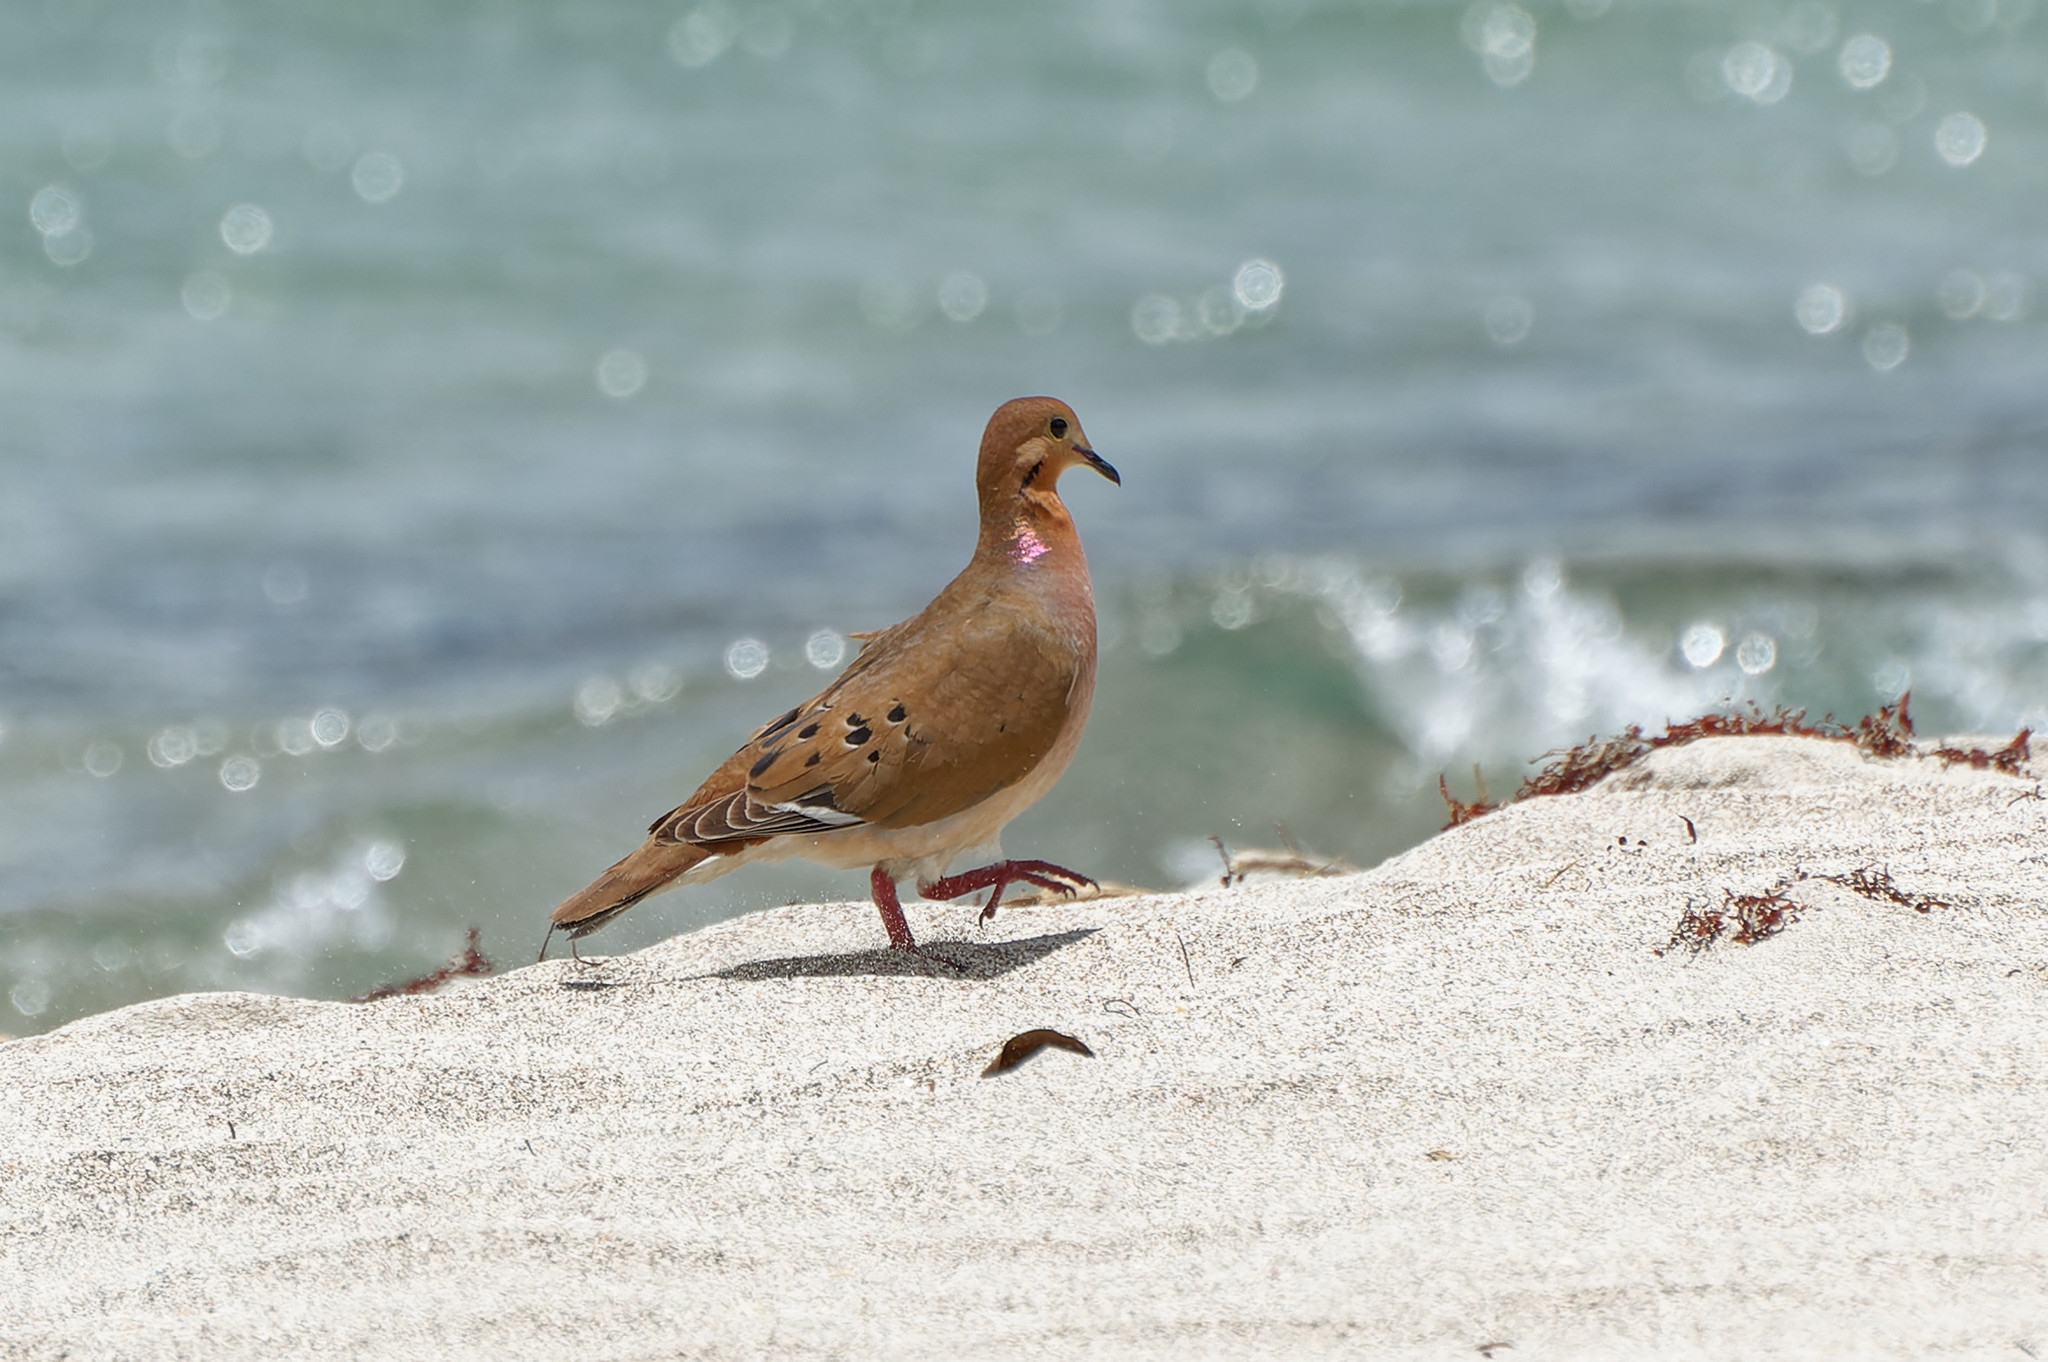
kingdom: Animalia
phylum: Chordata
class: Aves
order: Columbiformes
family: Columbidae
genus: Zenaida
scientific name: Zenaida aurita
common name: Zenaida dove
